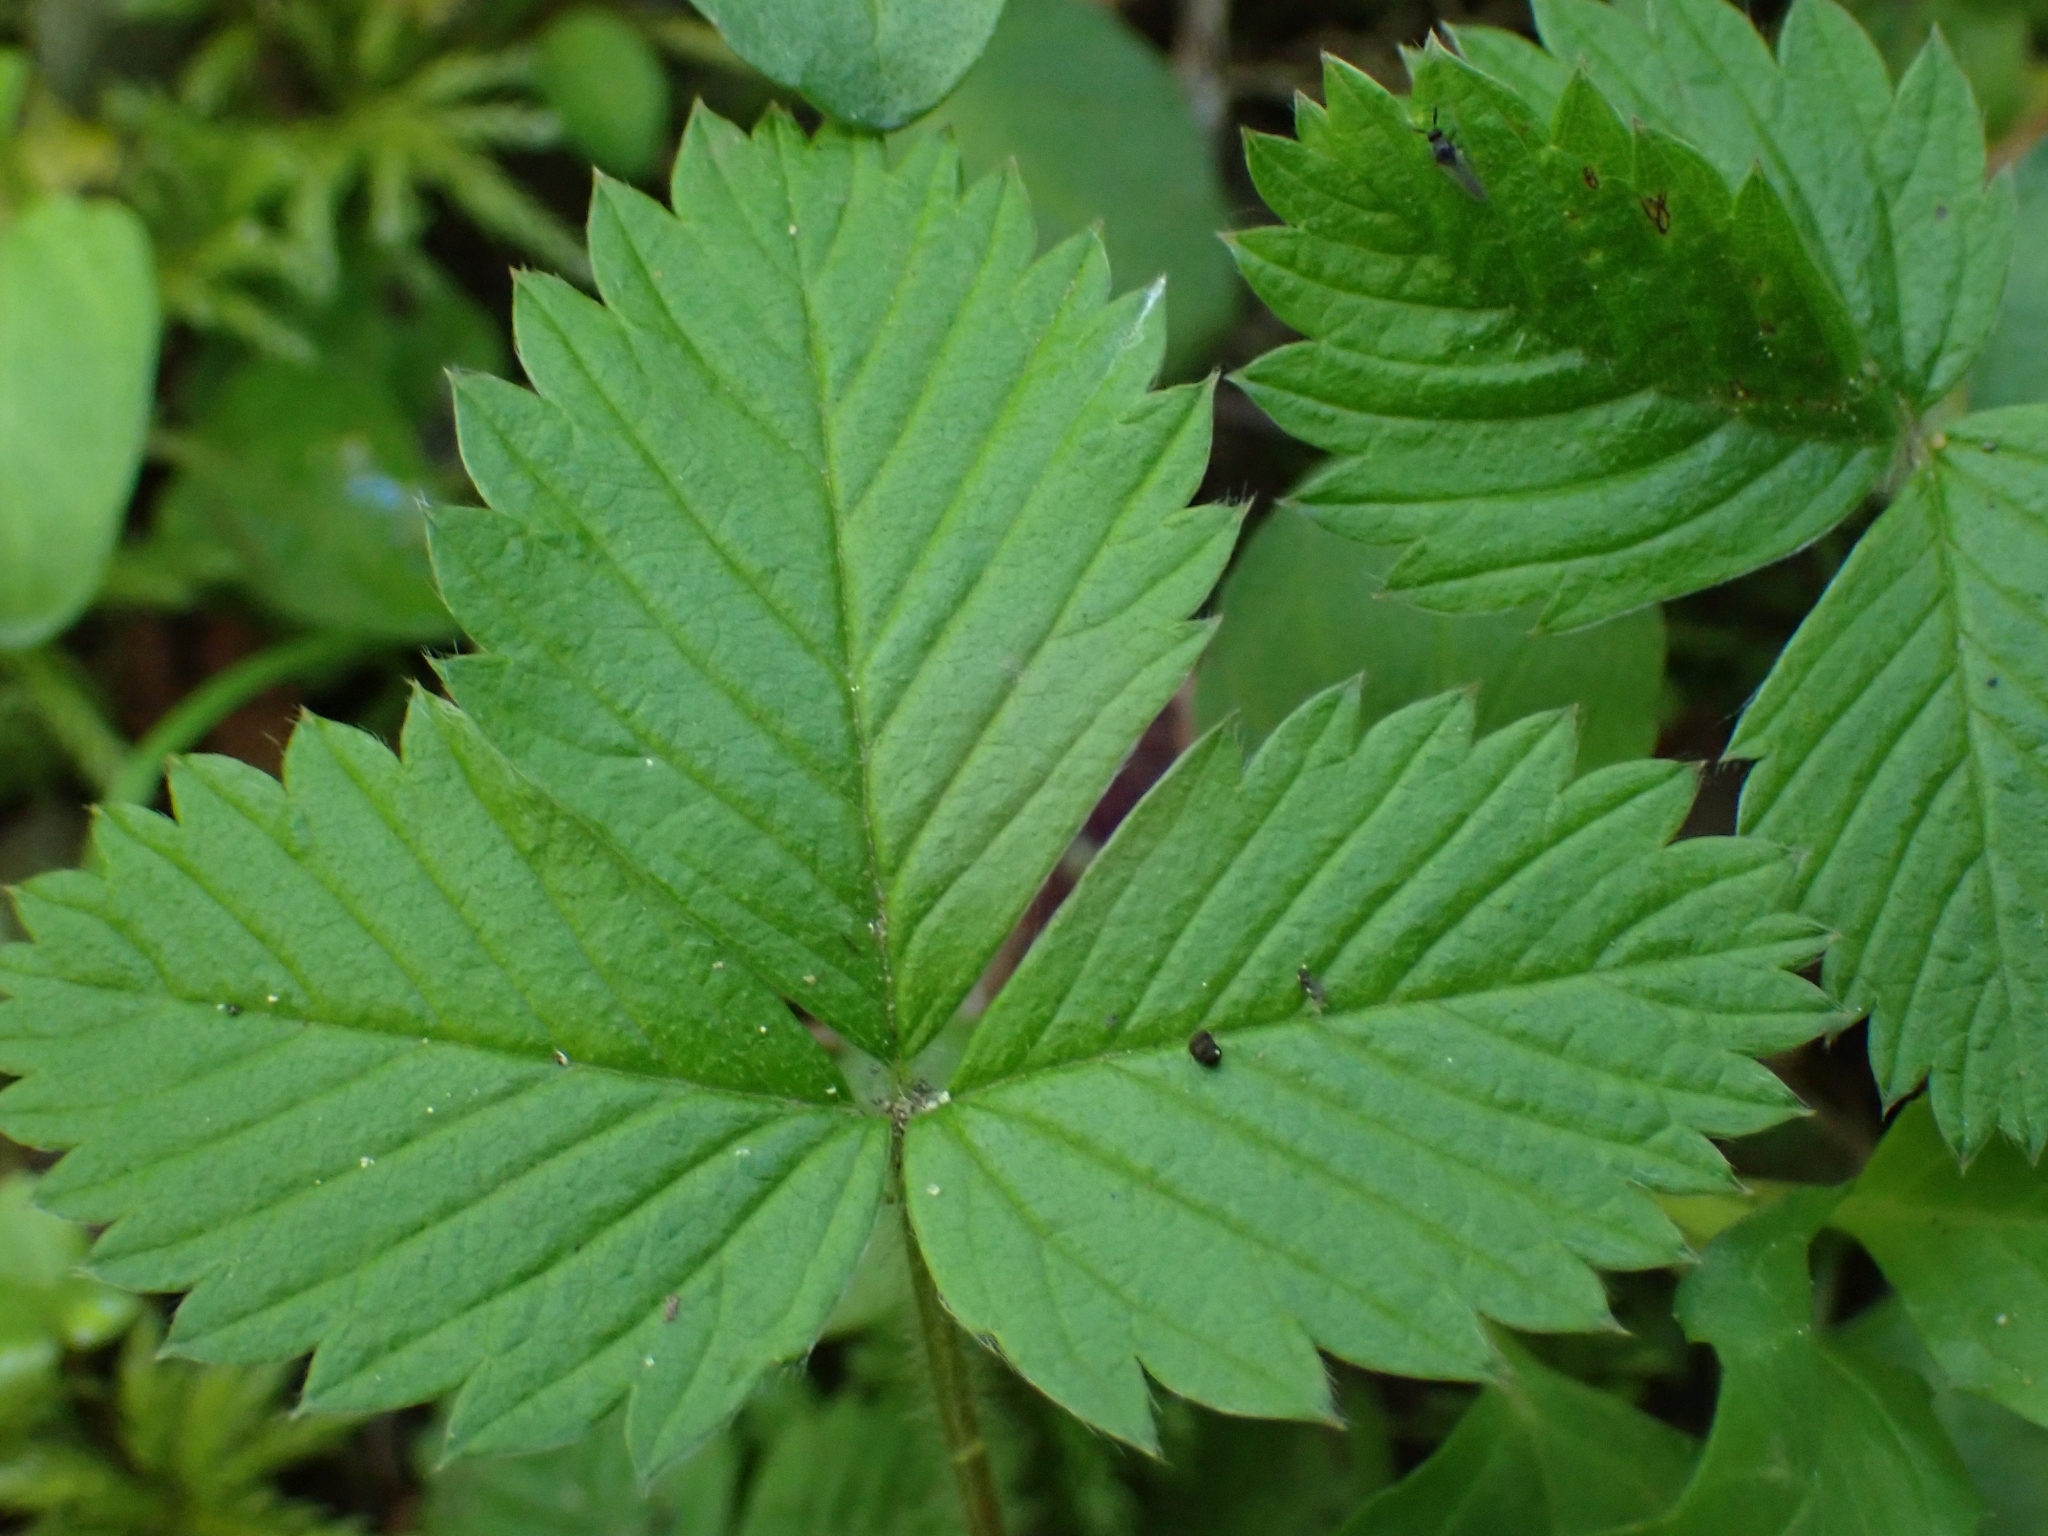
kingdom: Plantae
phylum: Tracheophyta
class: Magnoliopsida
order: Rosales
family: Rosaceae
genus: Fragaria
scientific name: Fragaria vesca
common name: Wild strawberry
